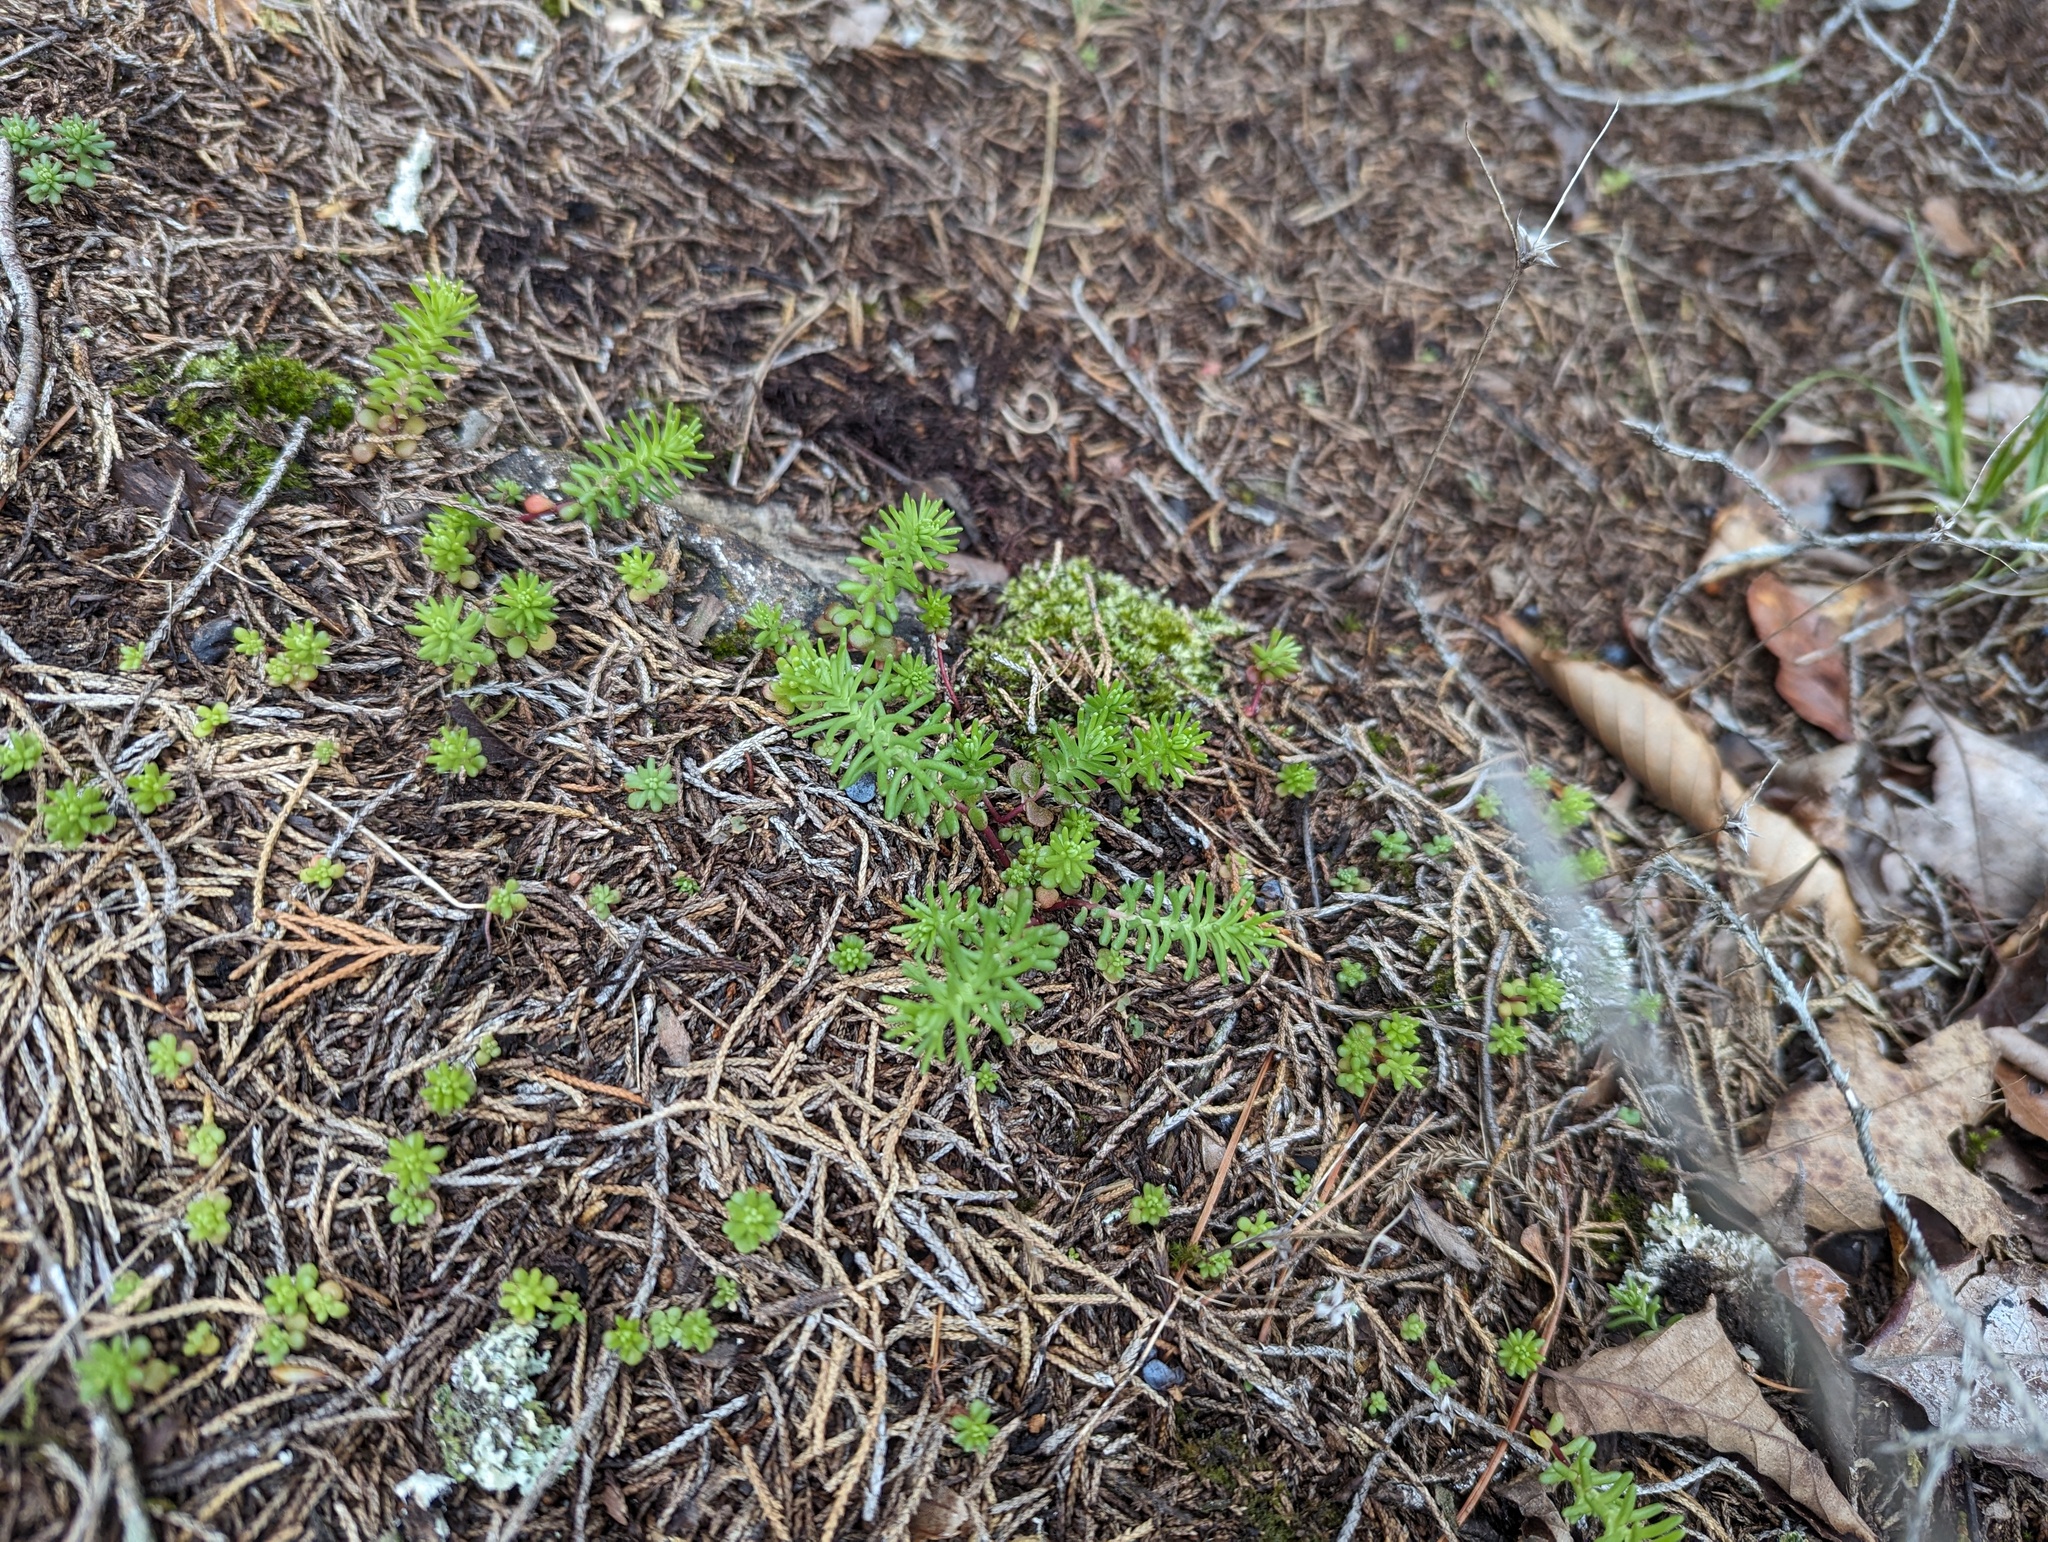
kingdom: Plantae
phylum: Tracheophyta
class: Magnoliopsida
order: Saxifragales
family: Crassulaceae
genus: Sedum
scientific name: Sedum pulchellum
